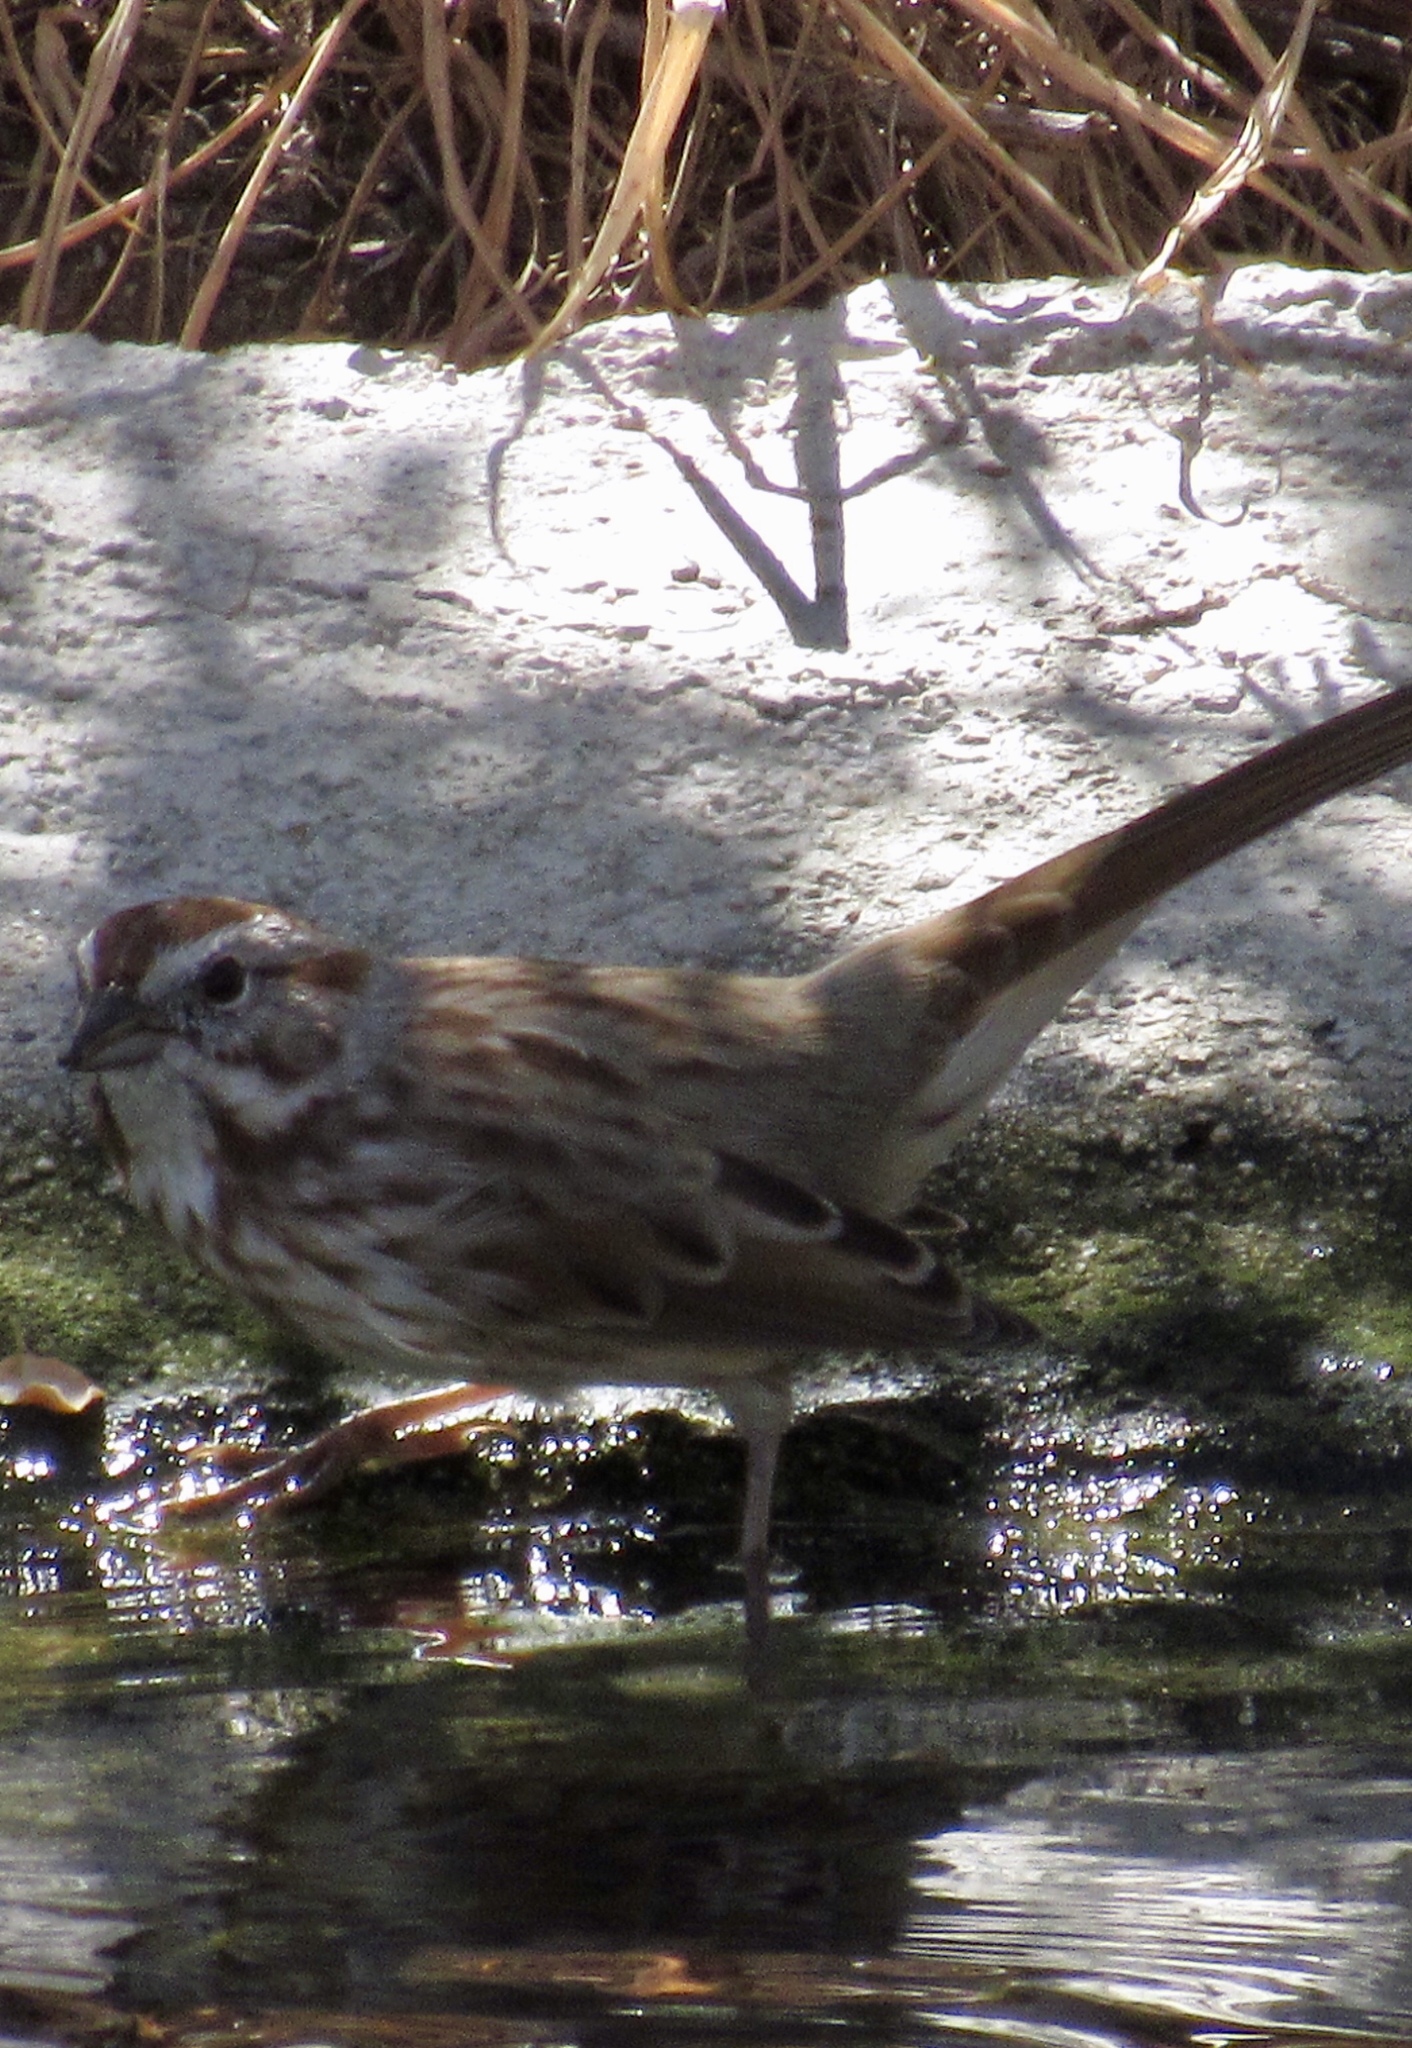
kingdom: Animalia
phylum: Chordata
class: Aves
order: Passeriformes
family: Passerellidae
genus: Melospiza
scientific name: Melospiza melodia
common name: Song sparrow
